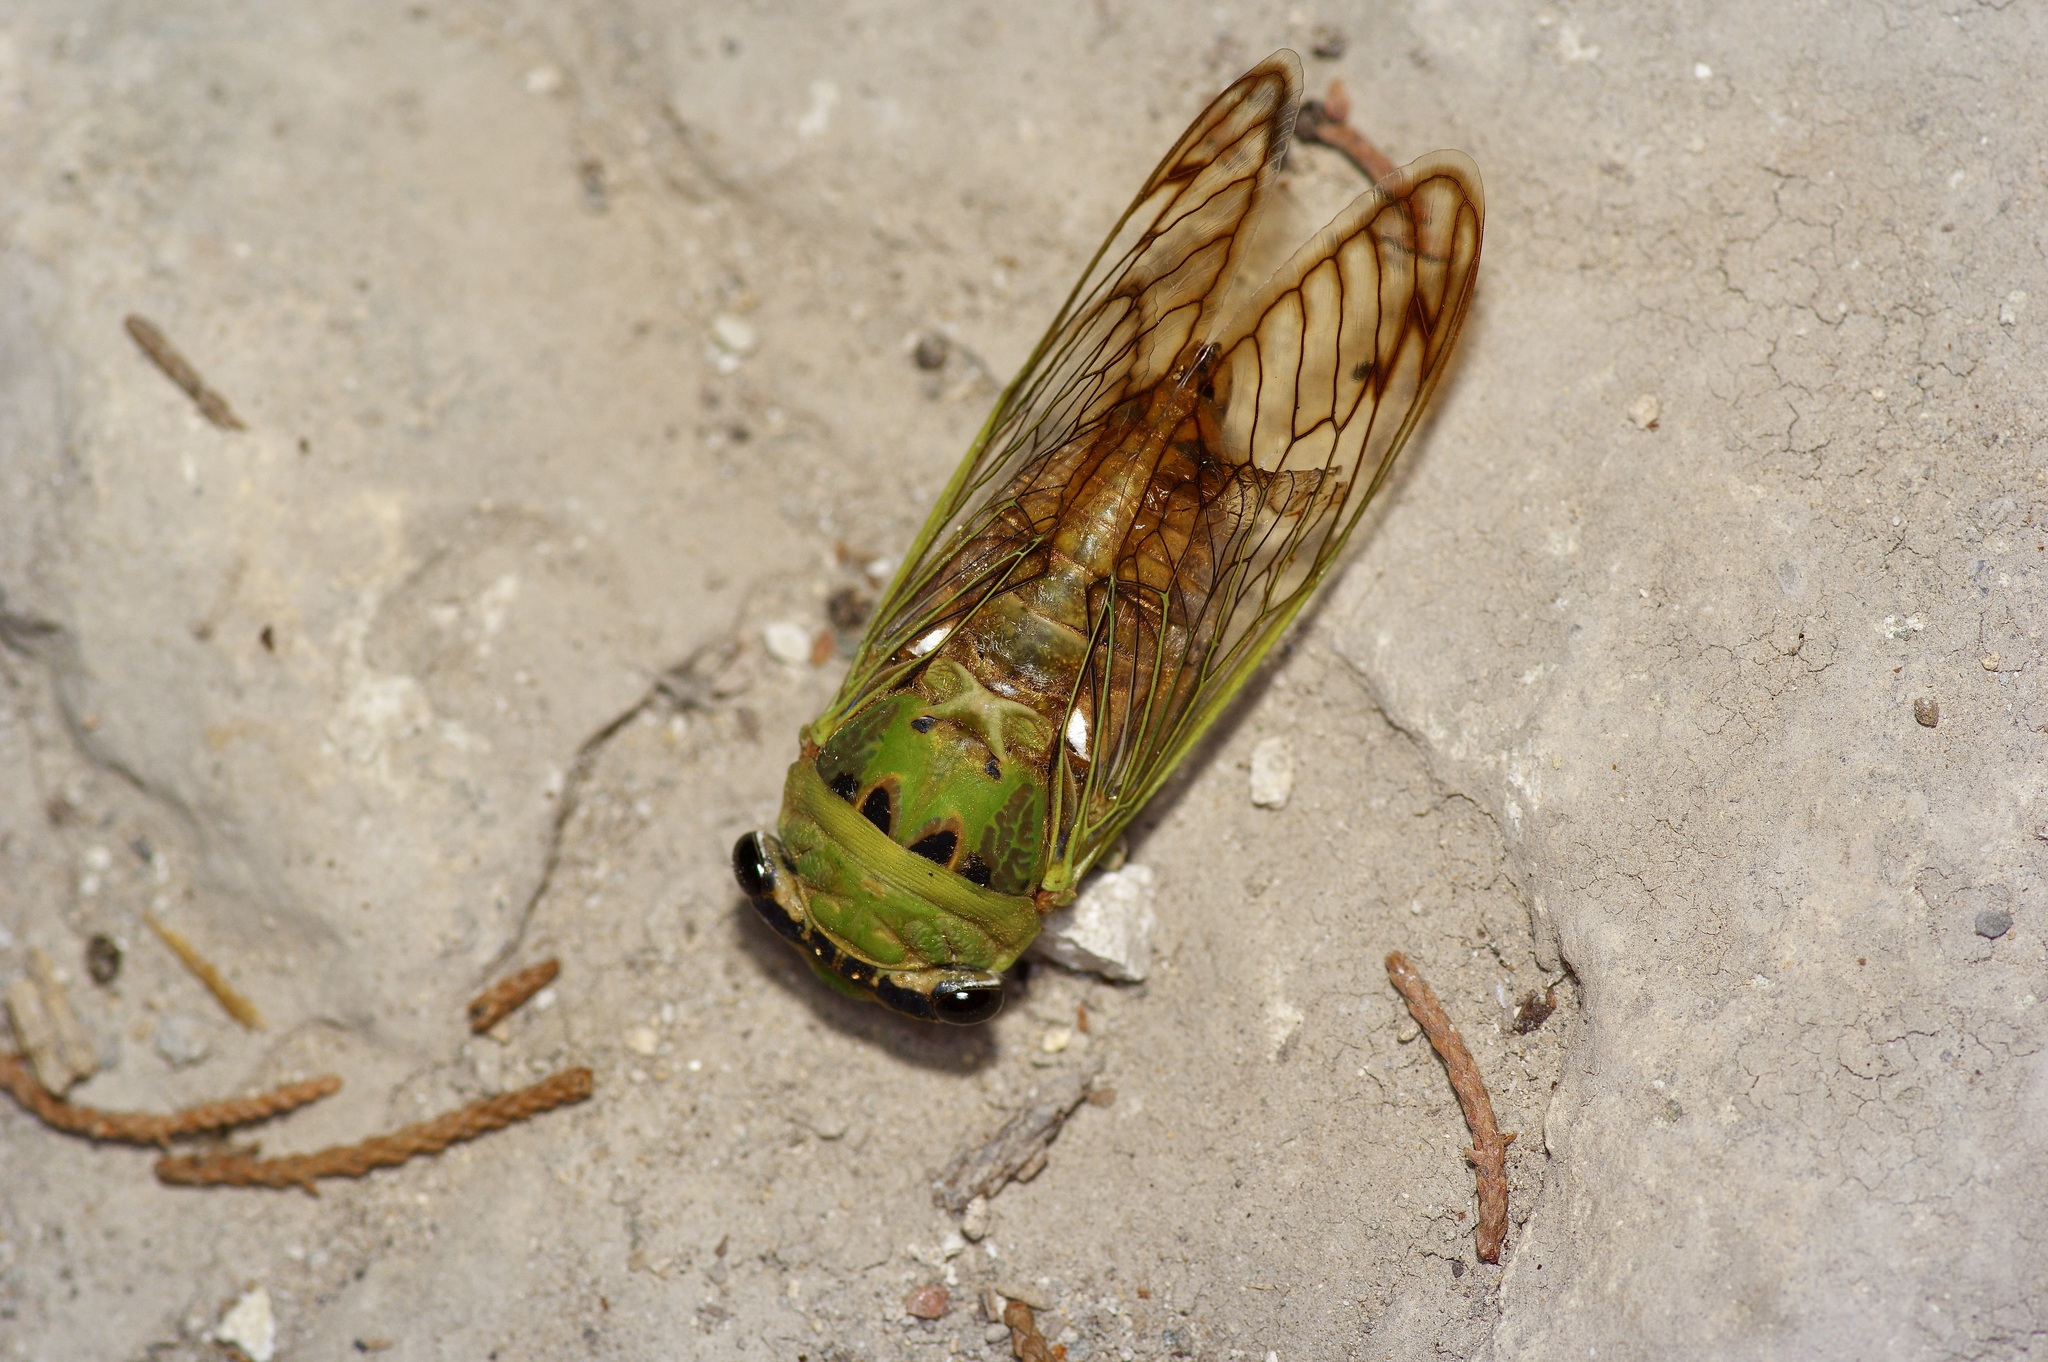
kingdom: Animalia
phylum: Arthropoda
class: Insecta
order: Hemiptera
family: Cicadidae
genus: Neotibicen
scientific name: Neotibicen superbus
